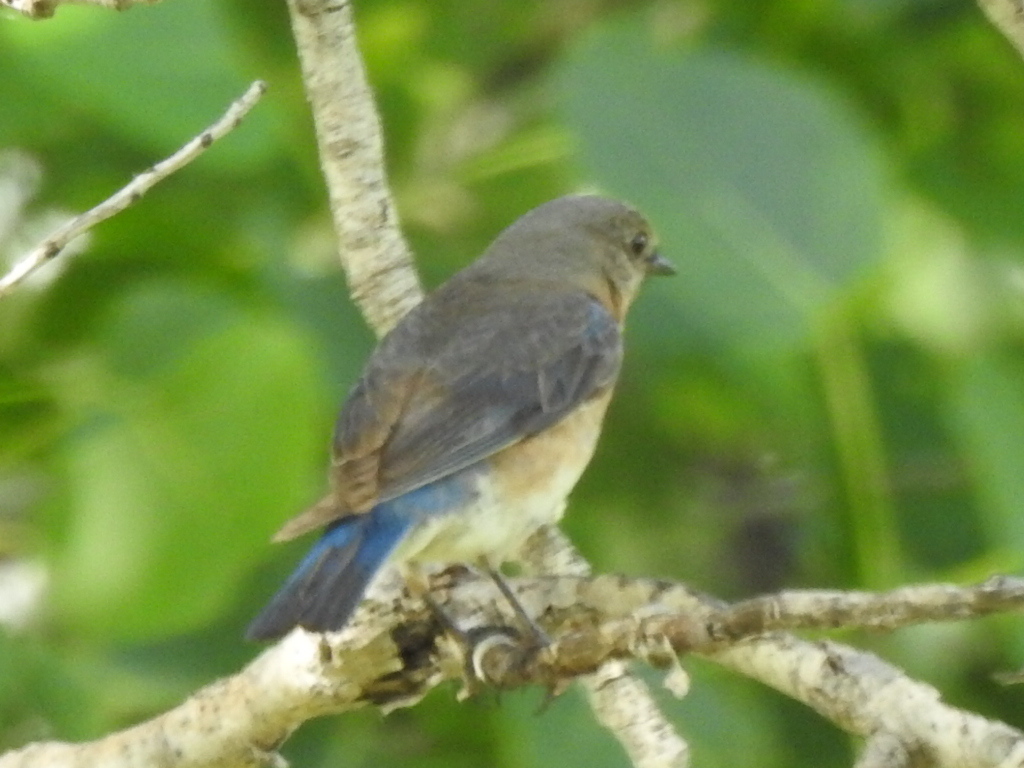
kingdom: Animalia
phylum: Chordata
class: Aves
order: Passeriformes
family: Turdidae
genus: Sialia
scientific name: Sialia sialis
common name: Eastern bluebird
